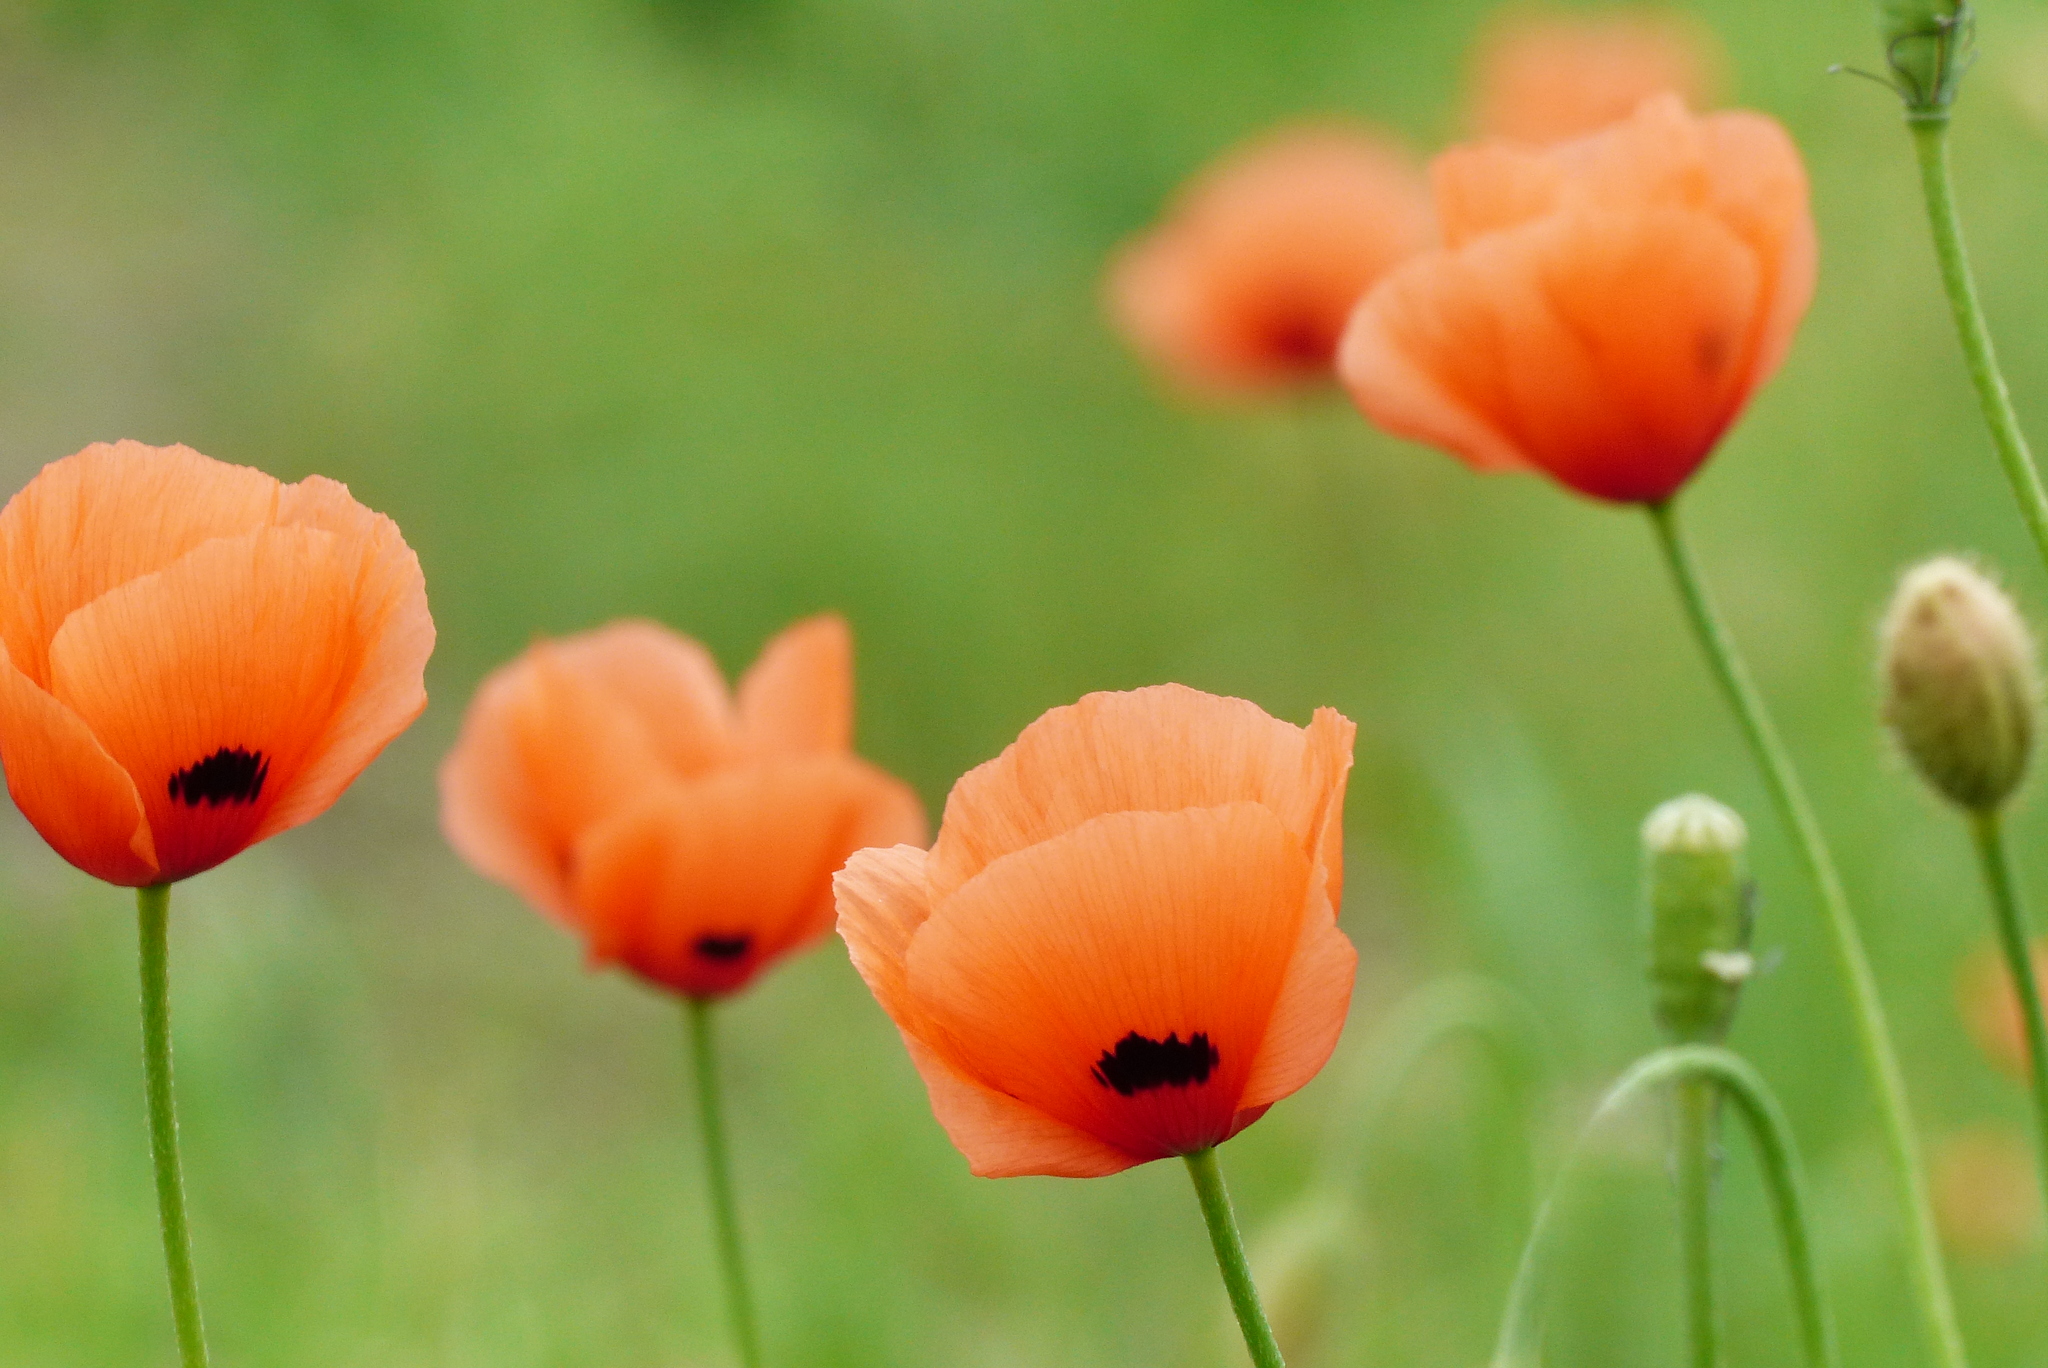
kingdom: Plantae
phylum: Tracheophyta
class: Magnoliopsida
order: Ranunculales
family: Papaveraceae
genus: Papaver
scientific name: Papaver dubium
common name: Long-headed poppy
